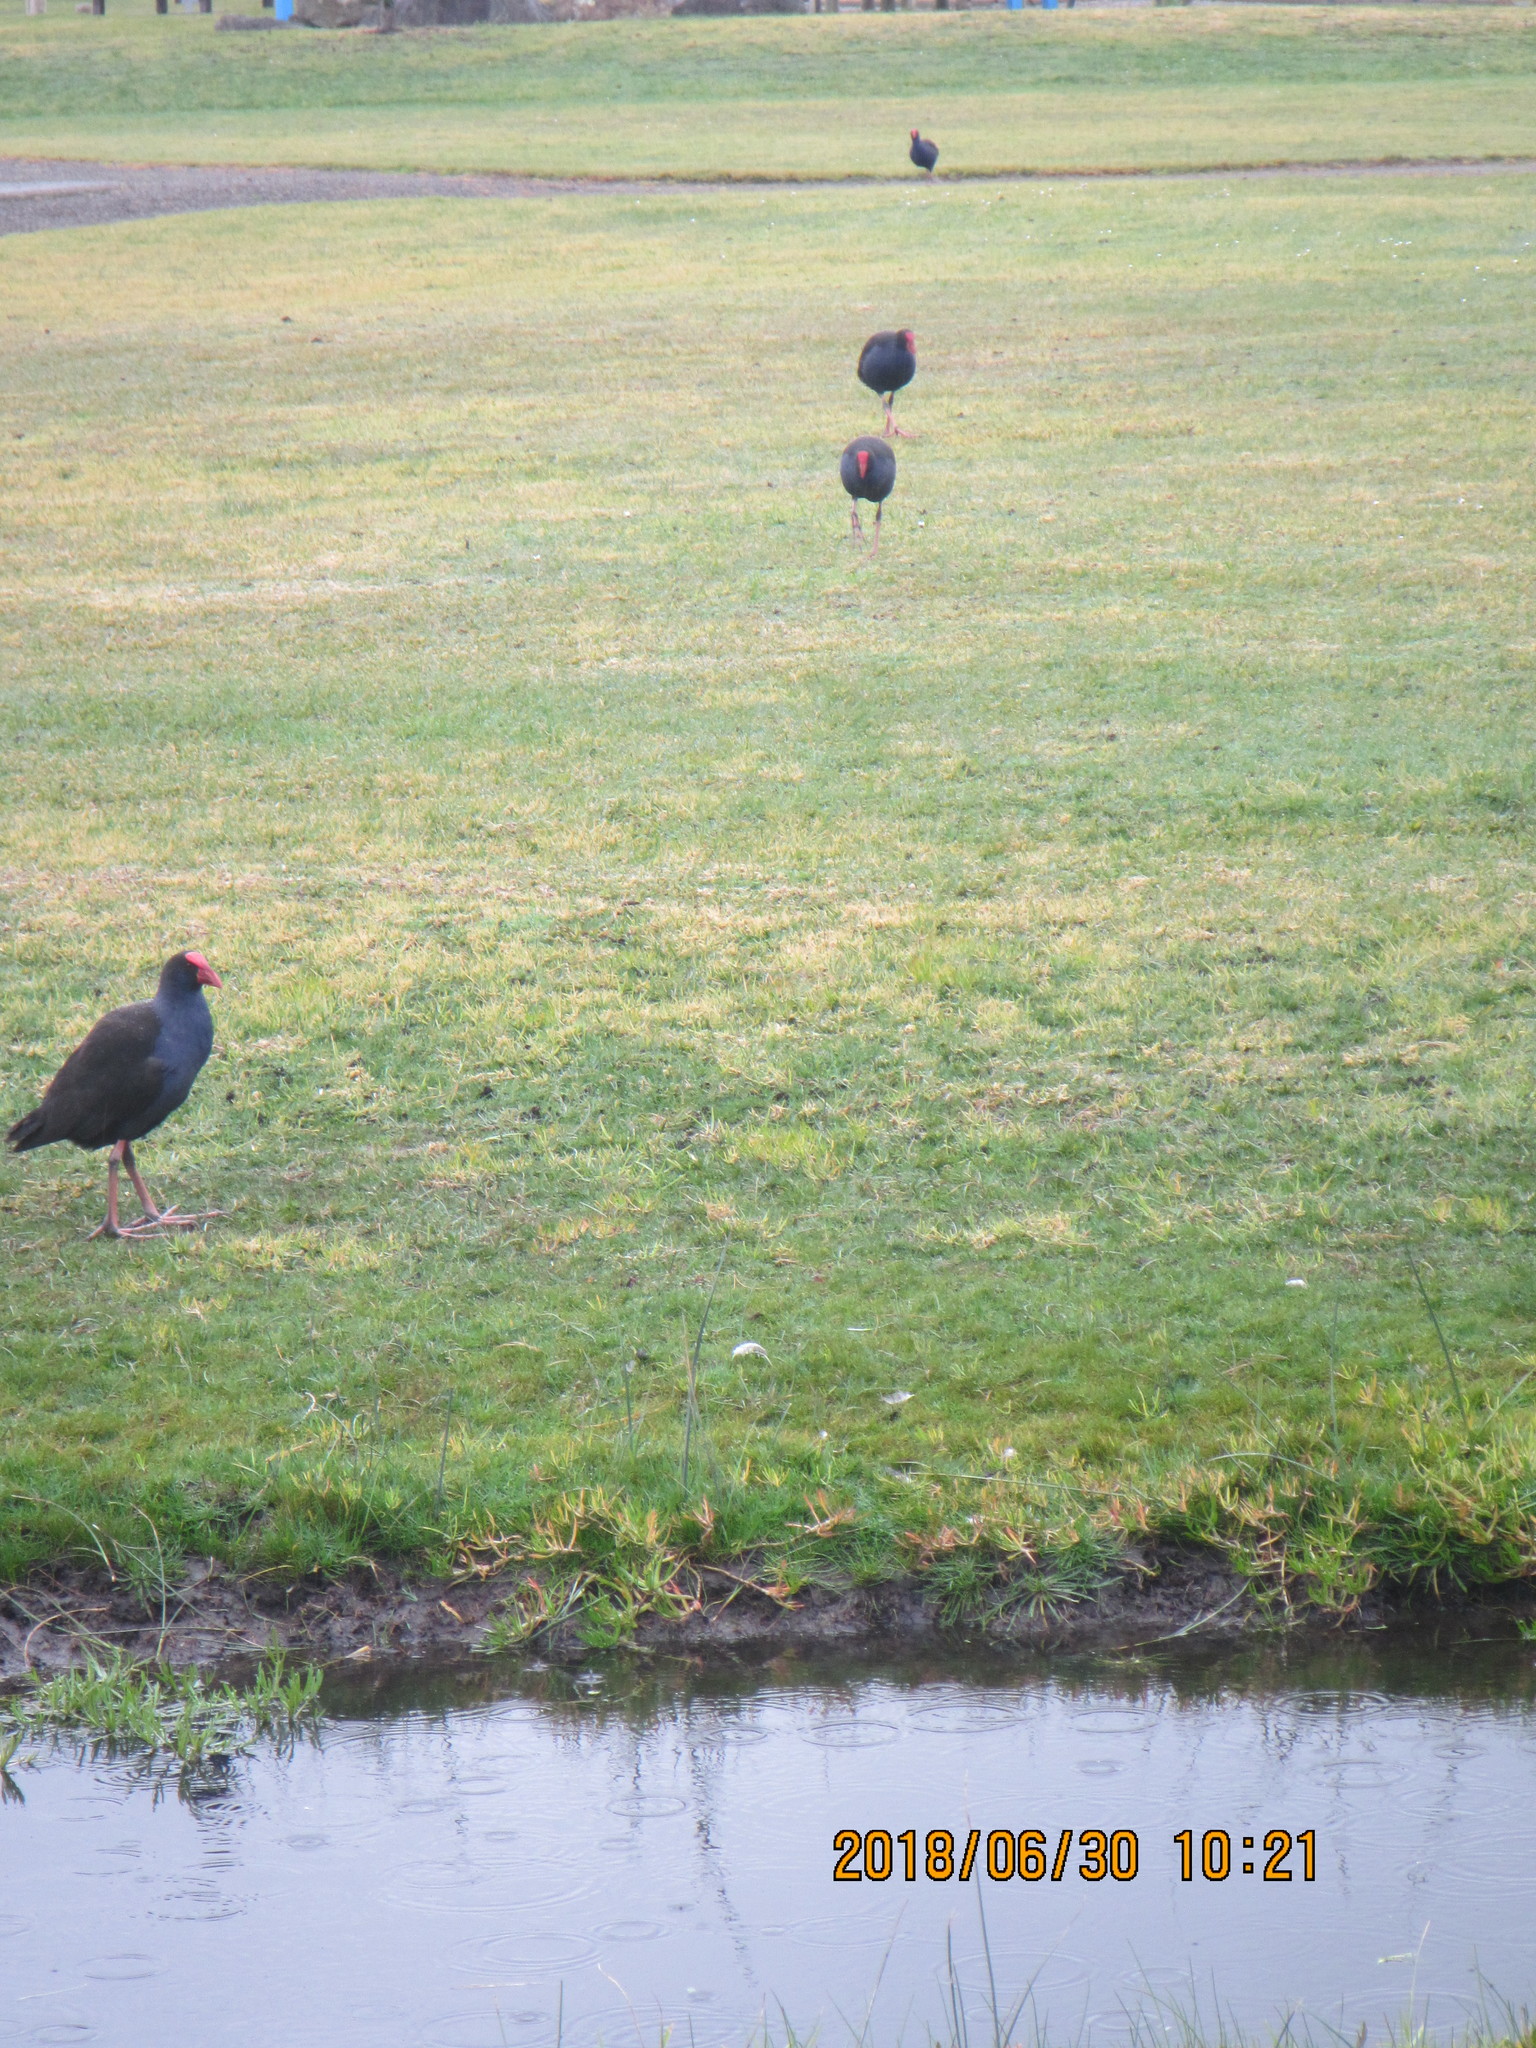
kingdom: Animalia
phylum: Chordata
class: Aves
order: Gruiformes
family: Rallidae
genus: Porphyrio
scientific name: Porphyrio melanotus
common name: Australasian swamphen
